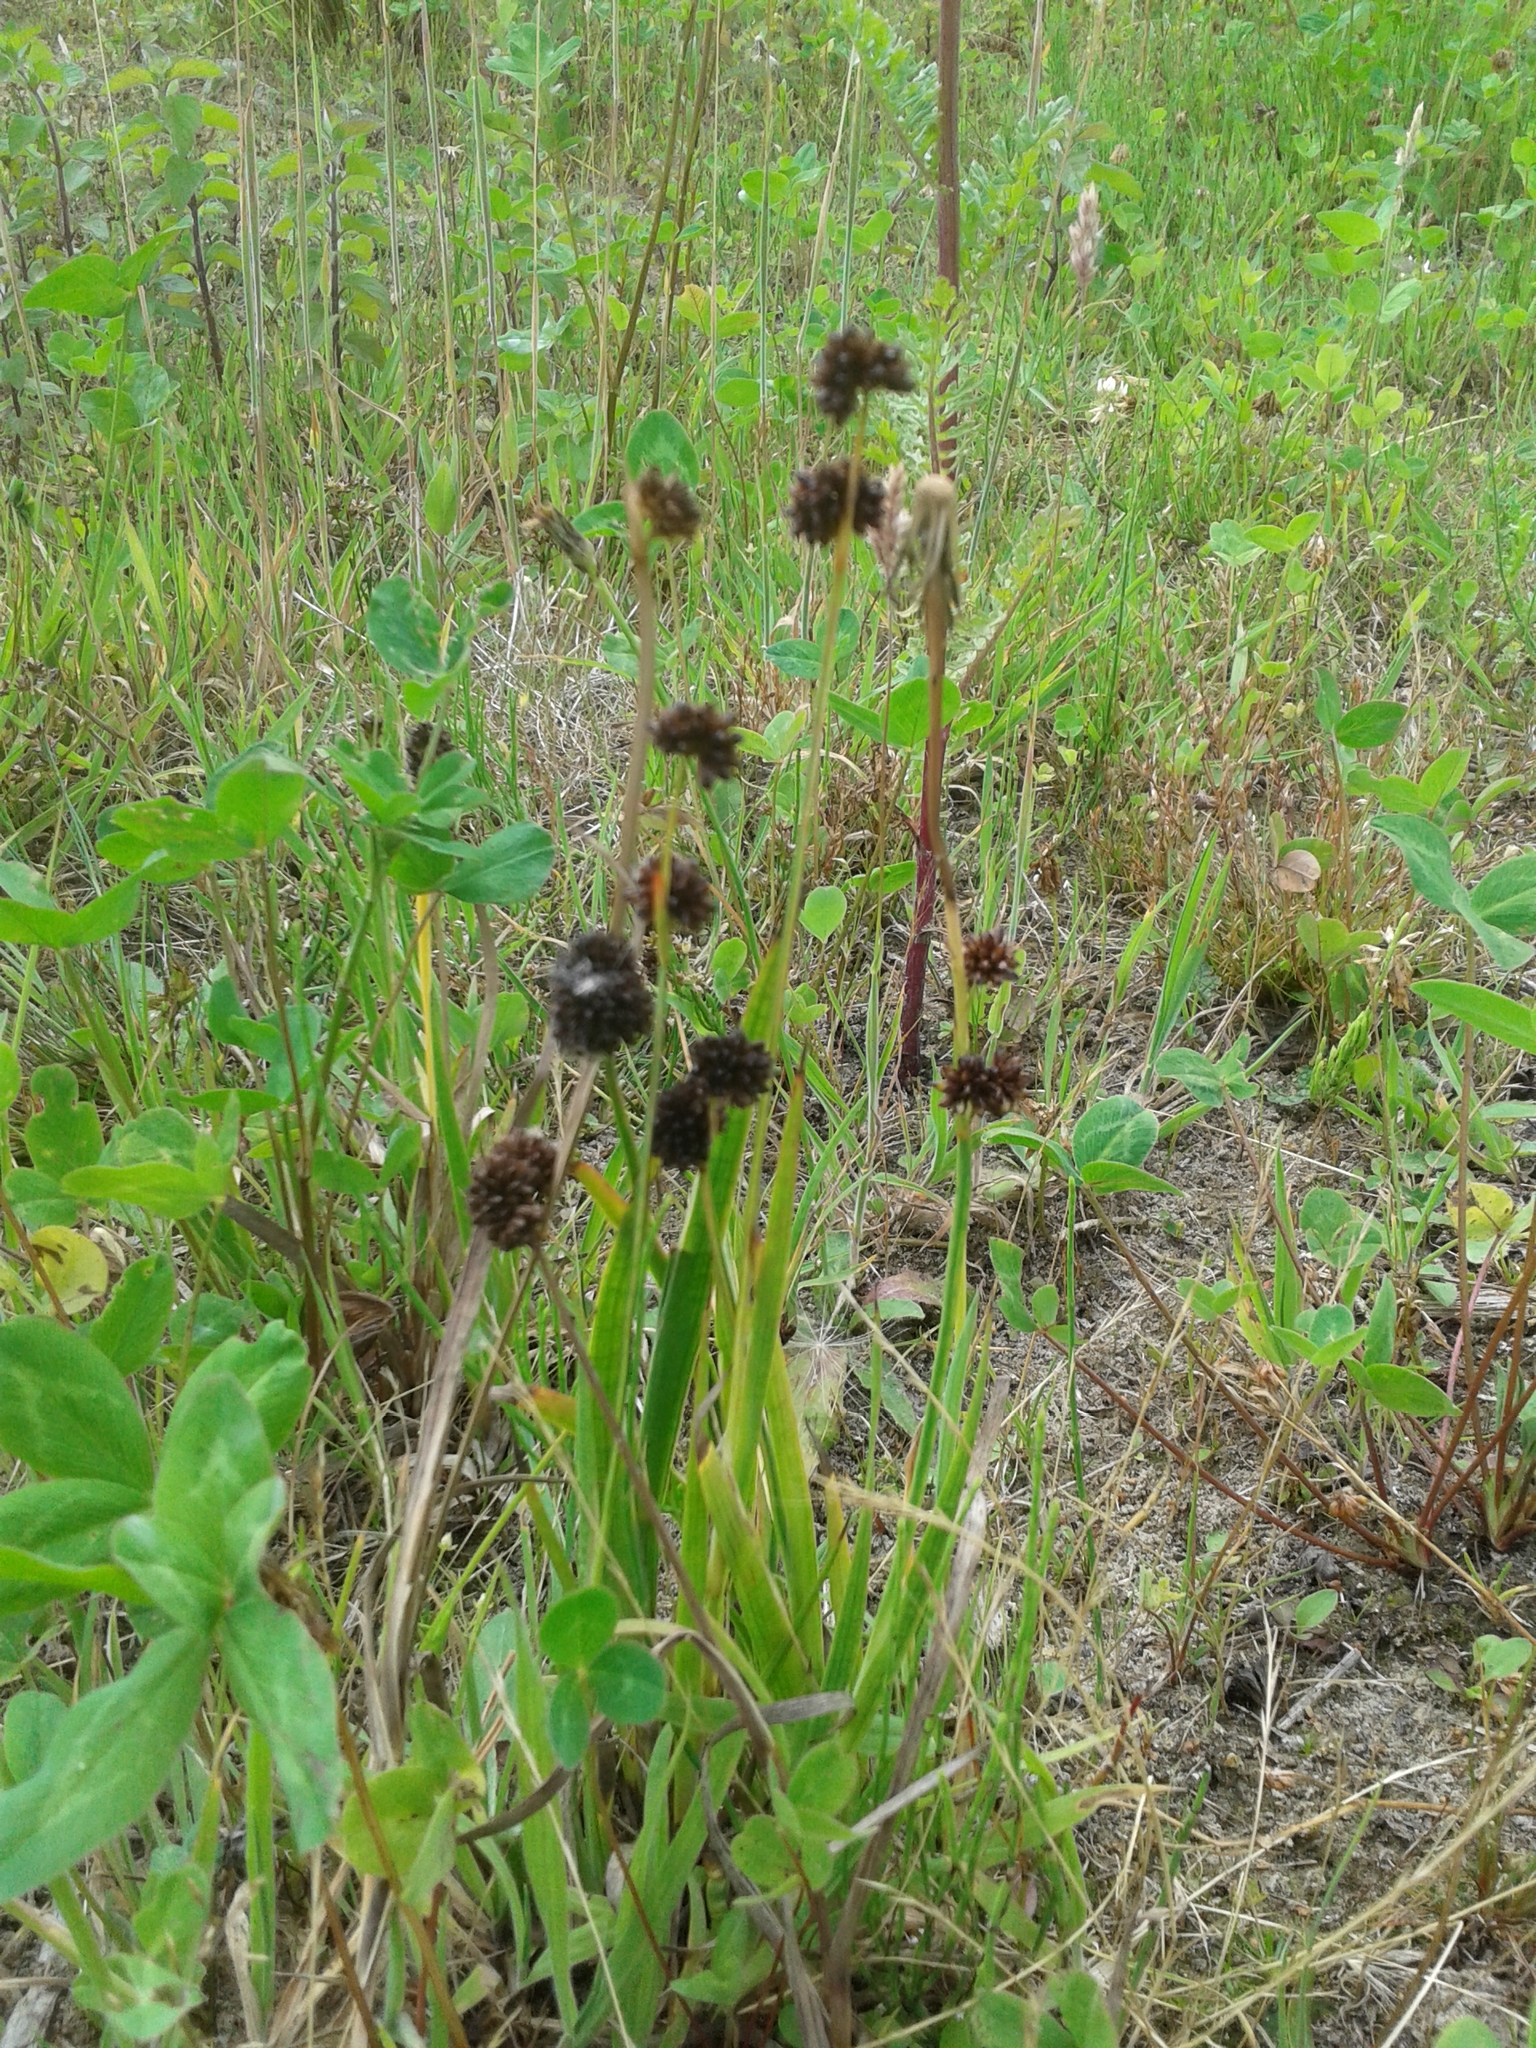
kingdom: Plantae
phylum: Tracheophyta
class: Liliopsida
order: Poales
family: Juncaceae
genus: Juncus
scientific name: Juncus ensifolius
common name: Sword-leaved rush
